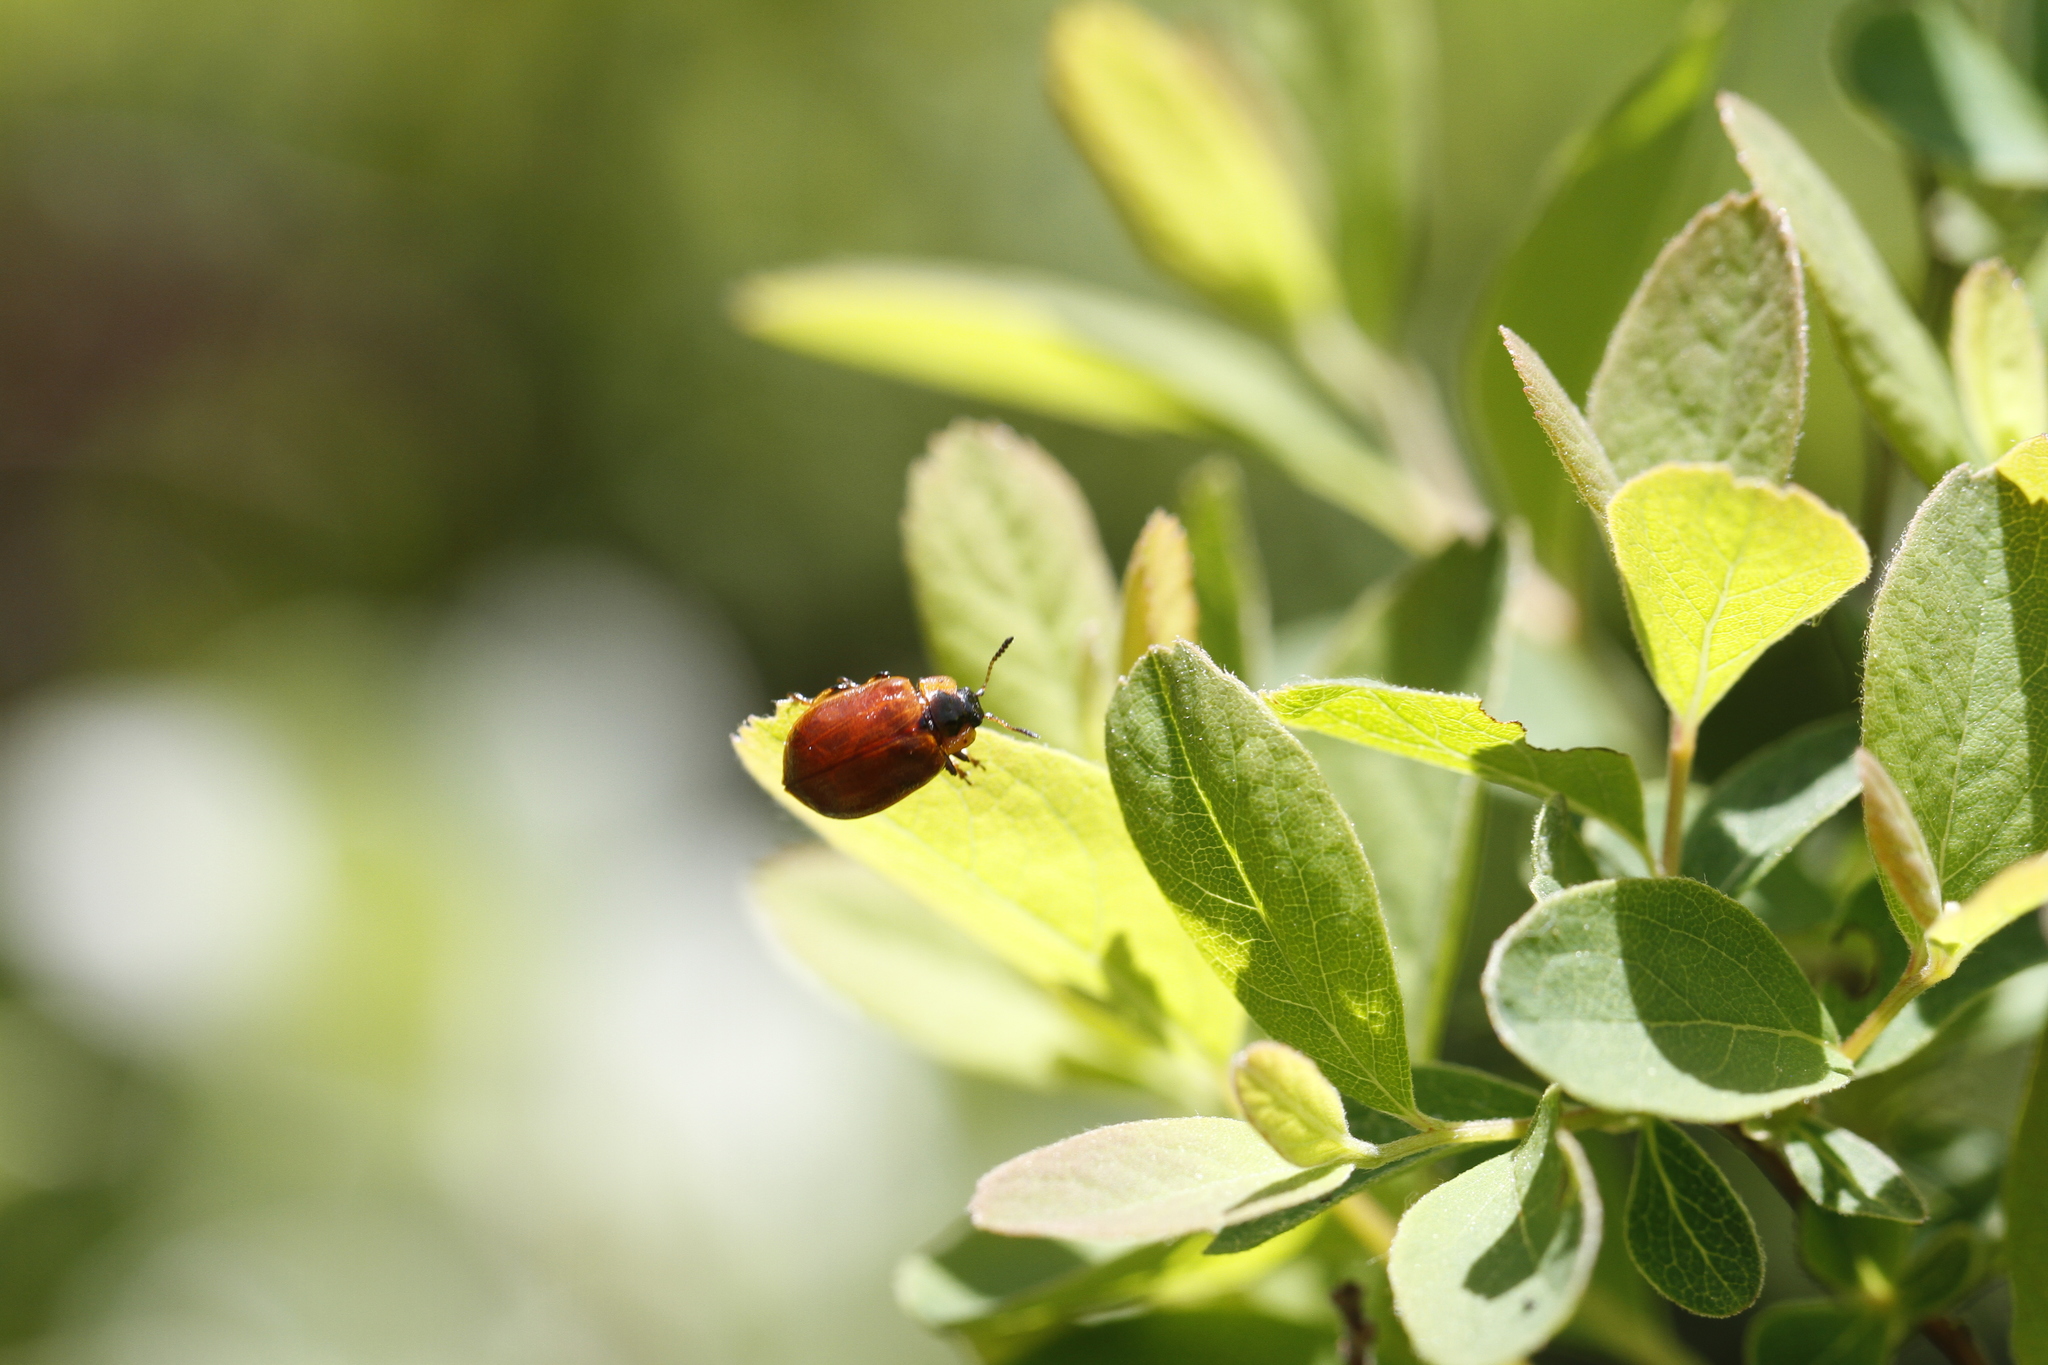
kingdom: Animalia
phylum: Arthropoda
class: Insecta
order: Coleoptera
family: Chrysomelidae
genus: Chrysomela
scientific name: Chrysomela schaefferi
